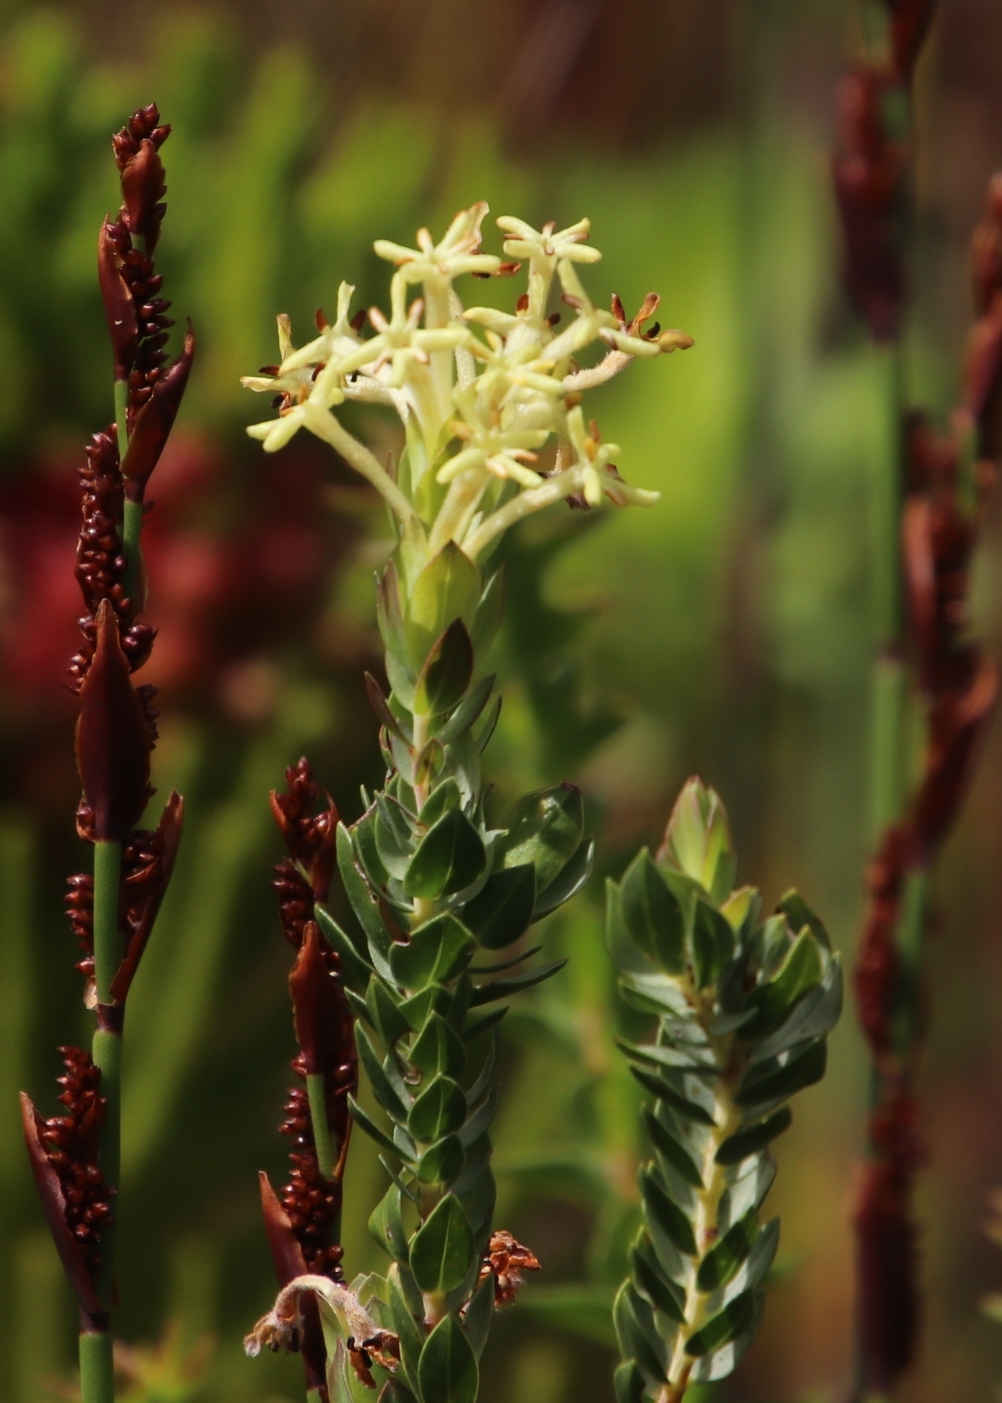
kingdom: Plantae
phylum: Tracheophyta
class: Magnoliopsida
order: Malvales
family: Thymelaeaceae
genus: Gnidia
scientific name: Gnidia oppositifolia
